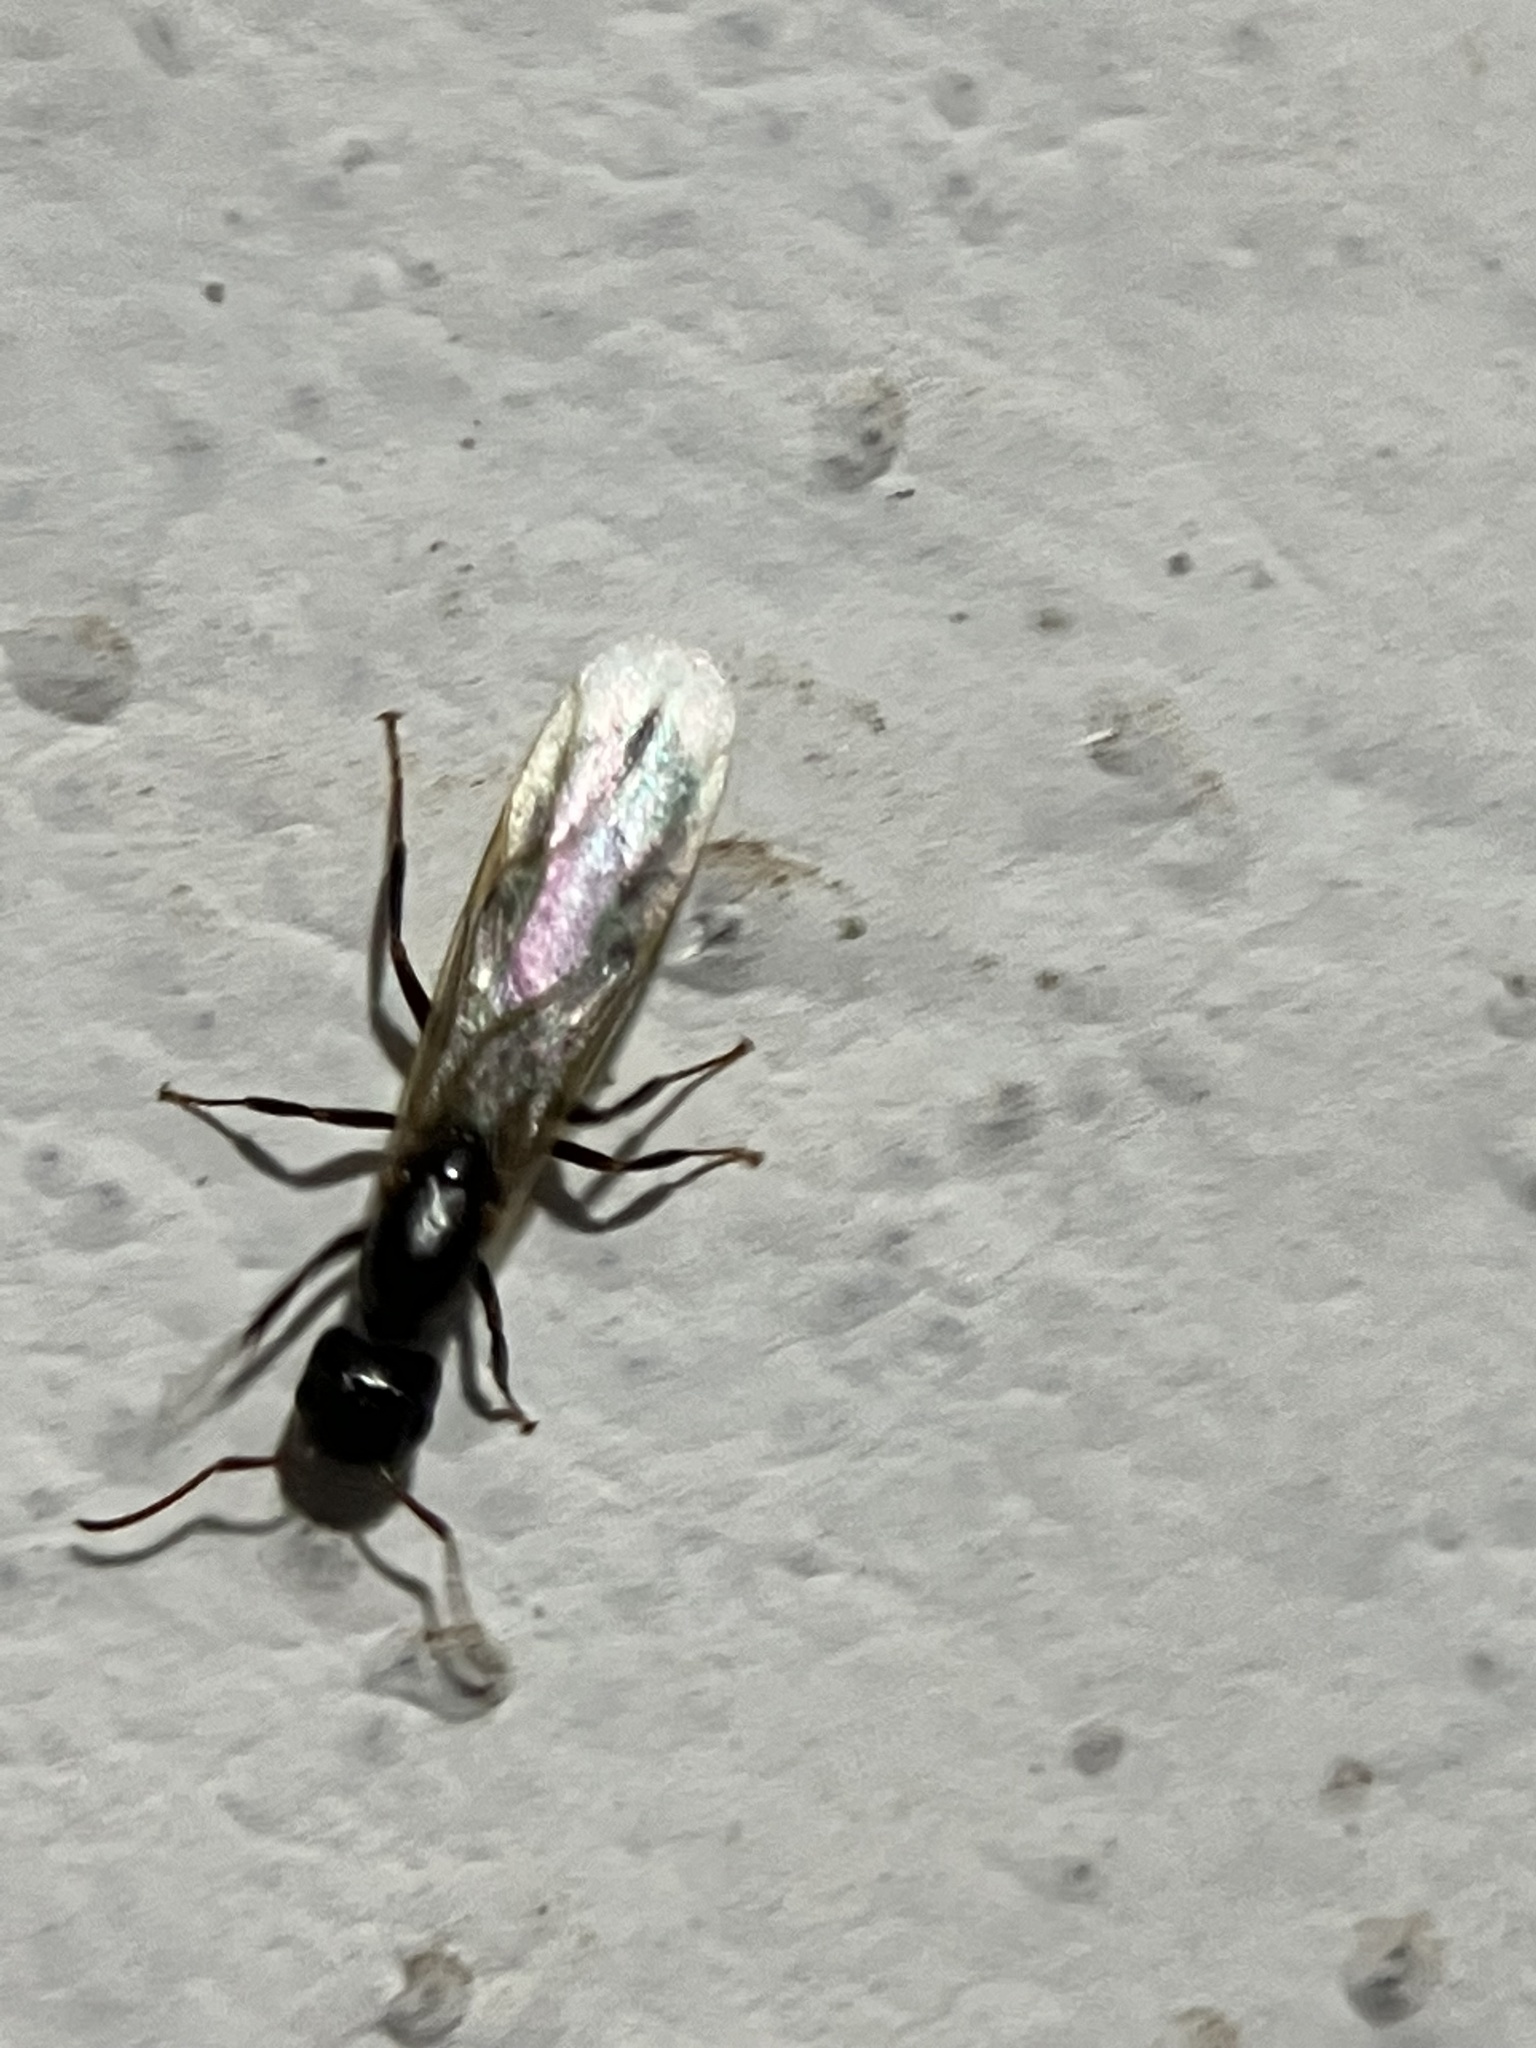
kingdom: Animalia
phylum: Arthropoda
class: Insecta
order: Hymenoptera
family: Formicidae
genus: Camponotus
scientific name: Camponotus barbatus
